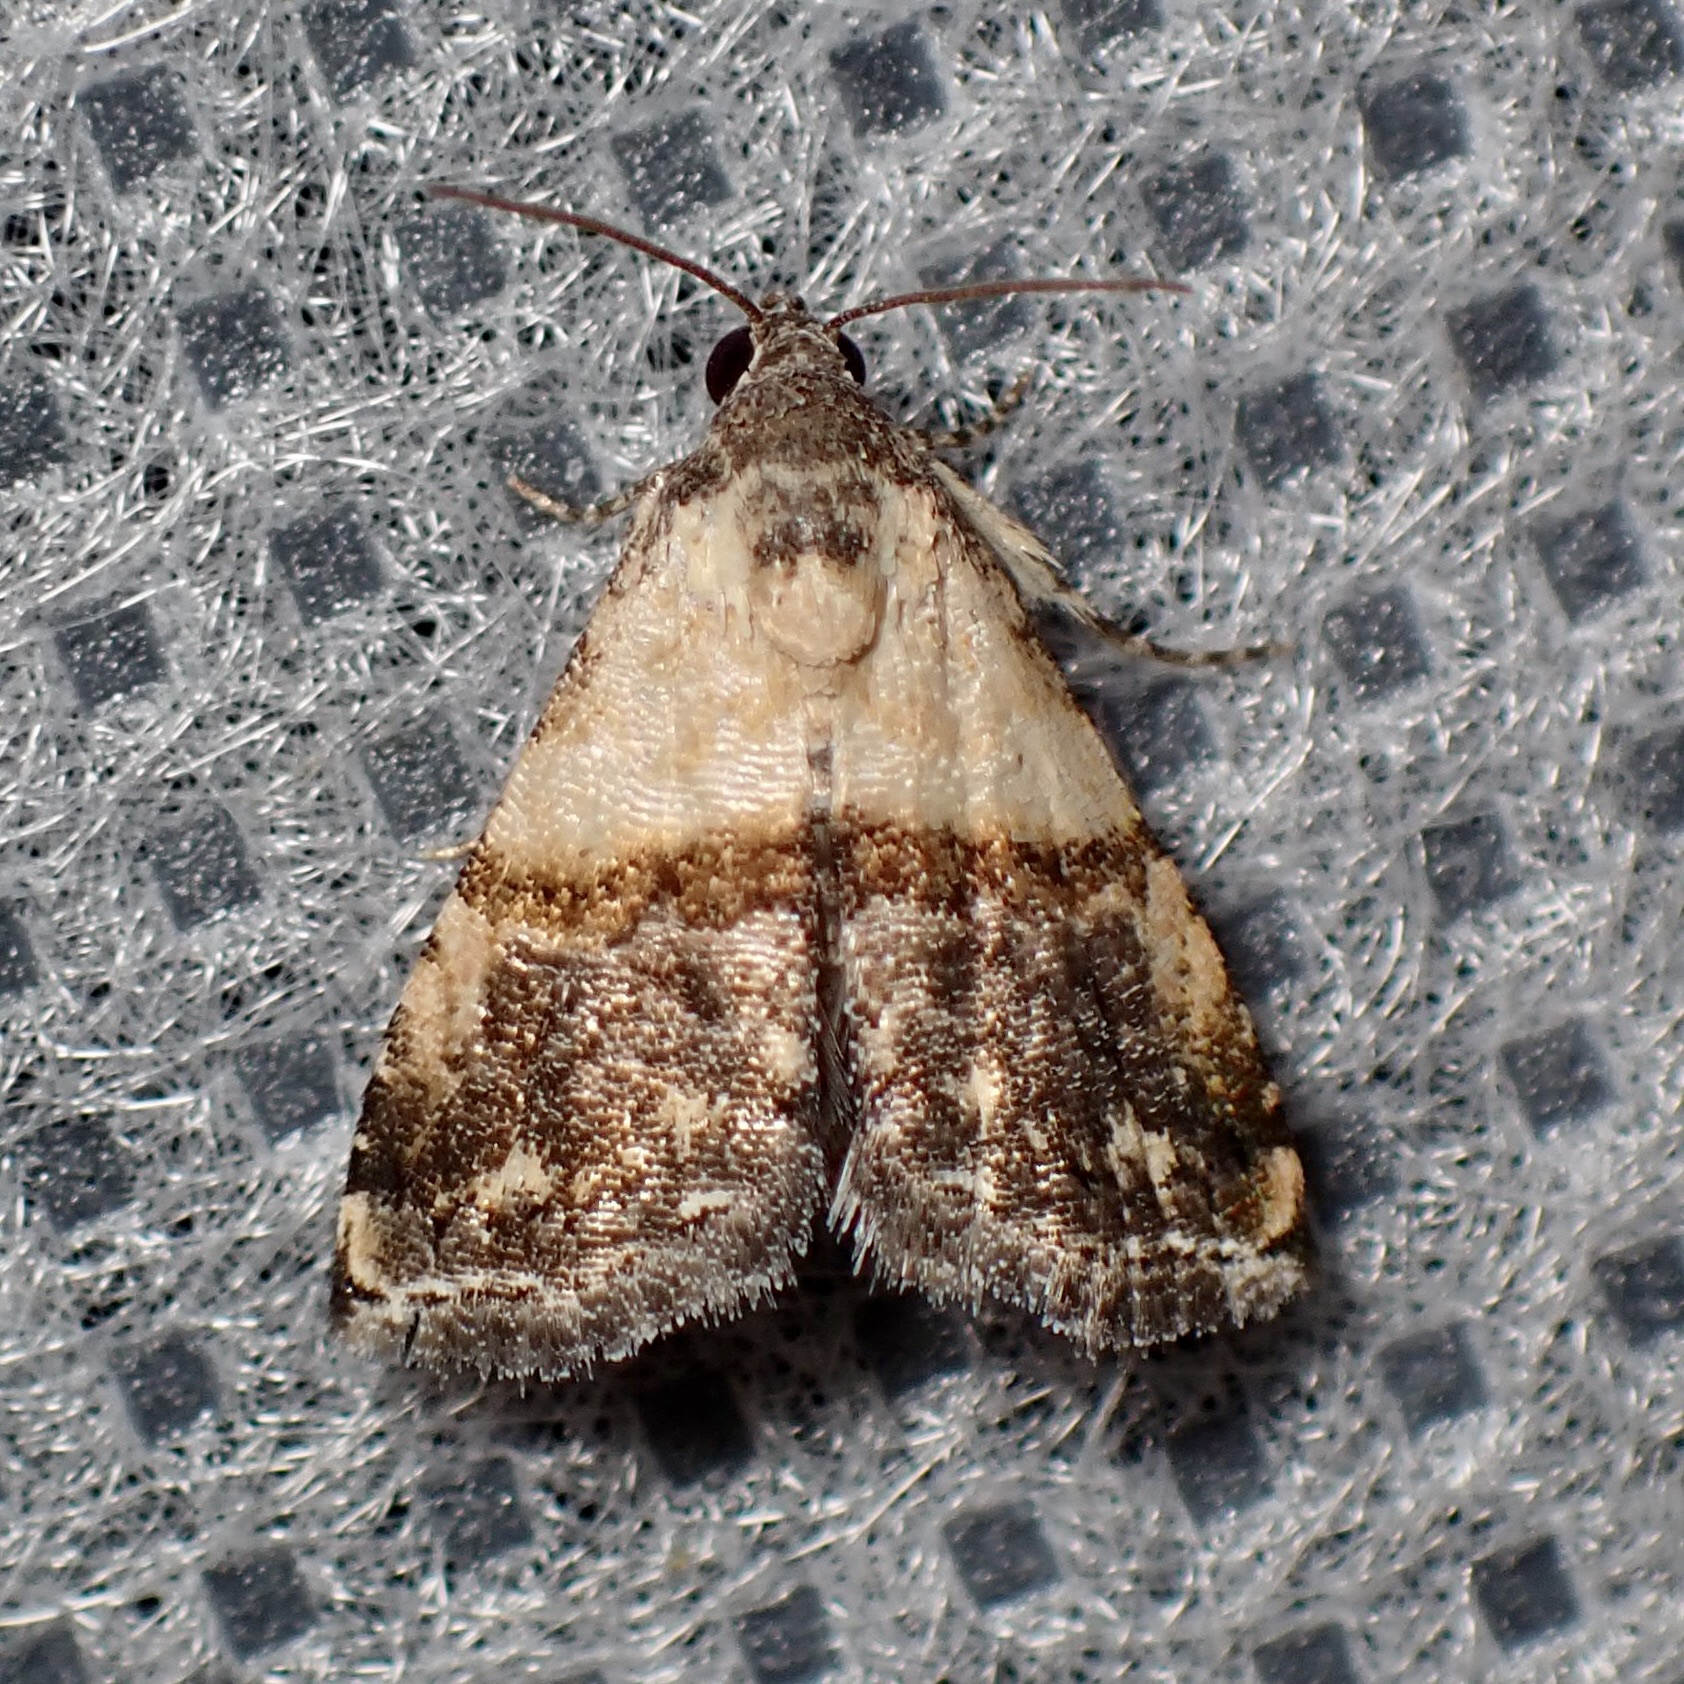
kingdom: Animalia
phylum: Arthropoda
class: Insecta
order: Lepidoptera
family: Noctuidae
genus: Tripudia
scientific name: Tripudia luda
